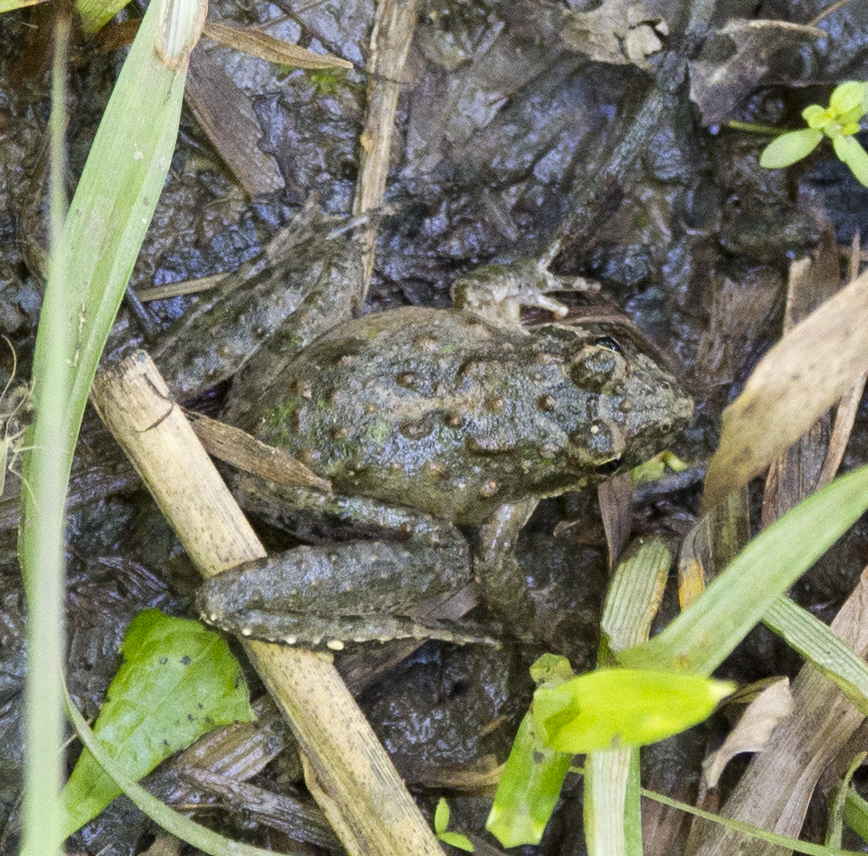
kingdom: Animalia
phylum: Chordata
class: Amphibia
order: Anura
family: Hylidae
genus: Acris
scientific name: Acris blanchardi
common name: Blanchard's cricket frog
